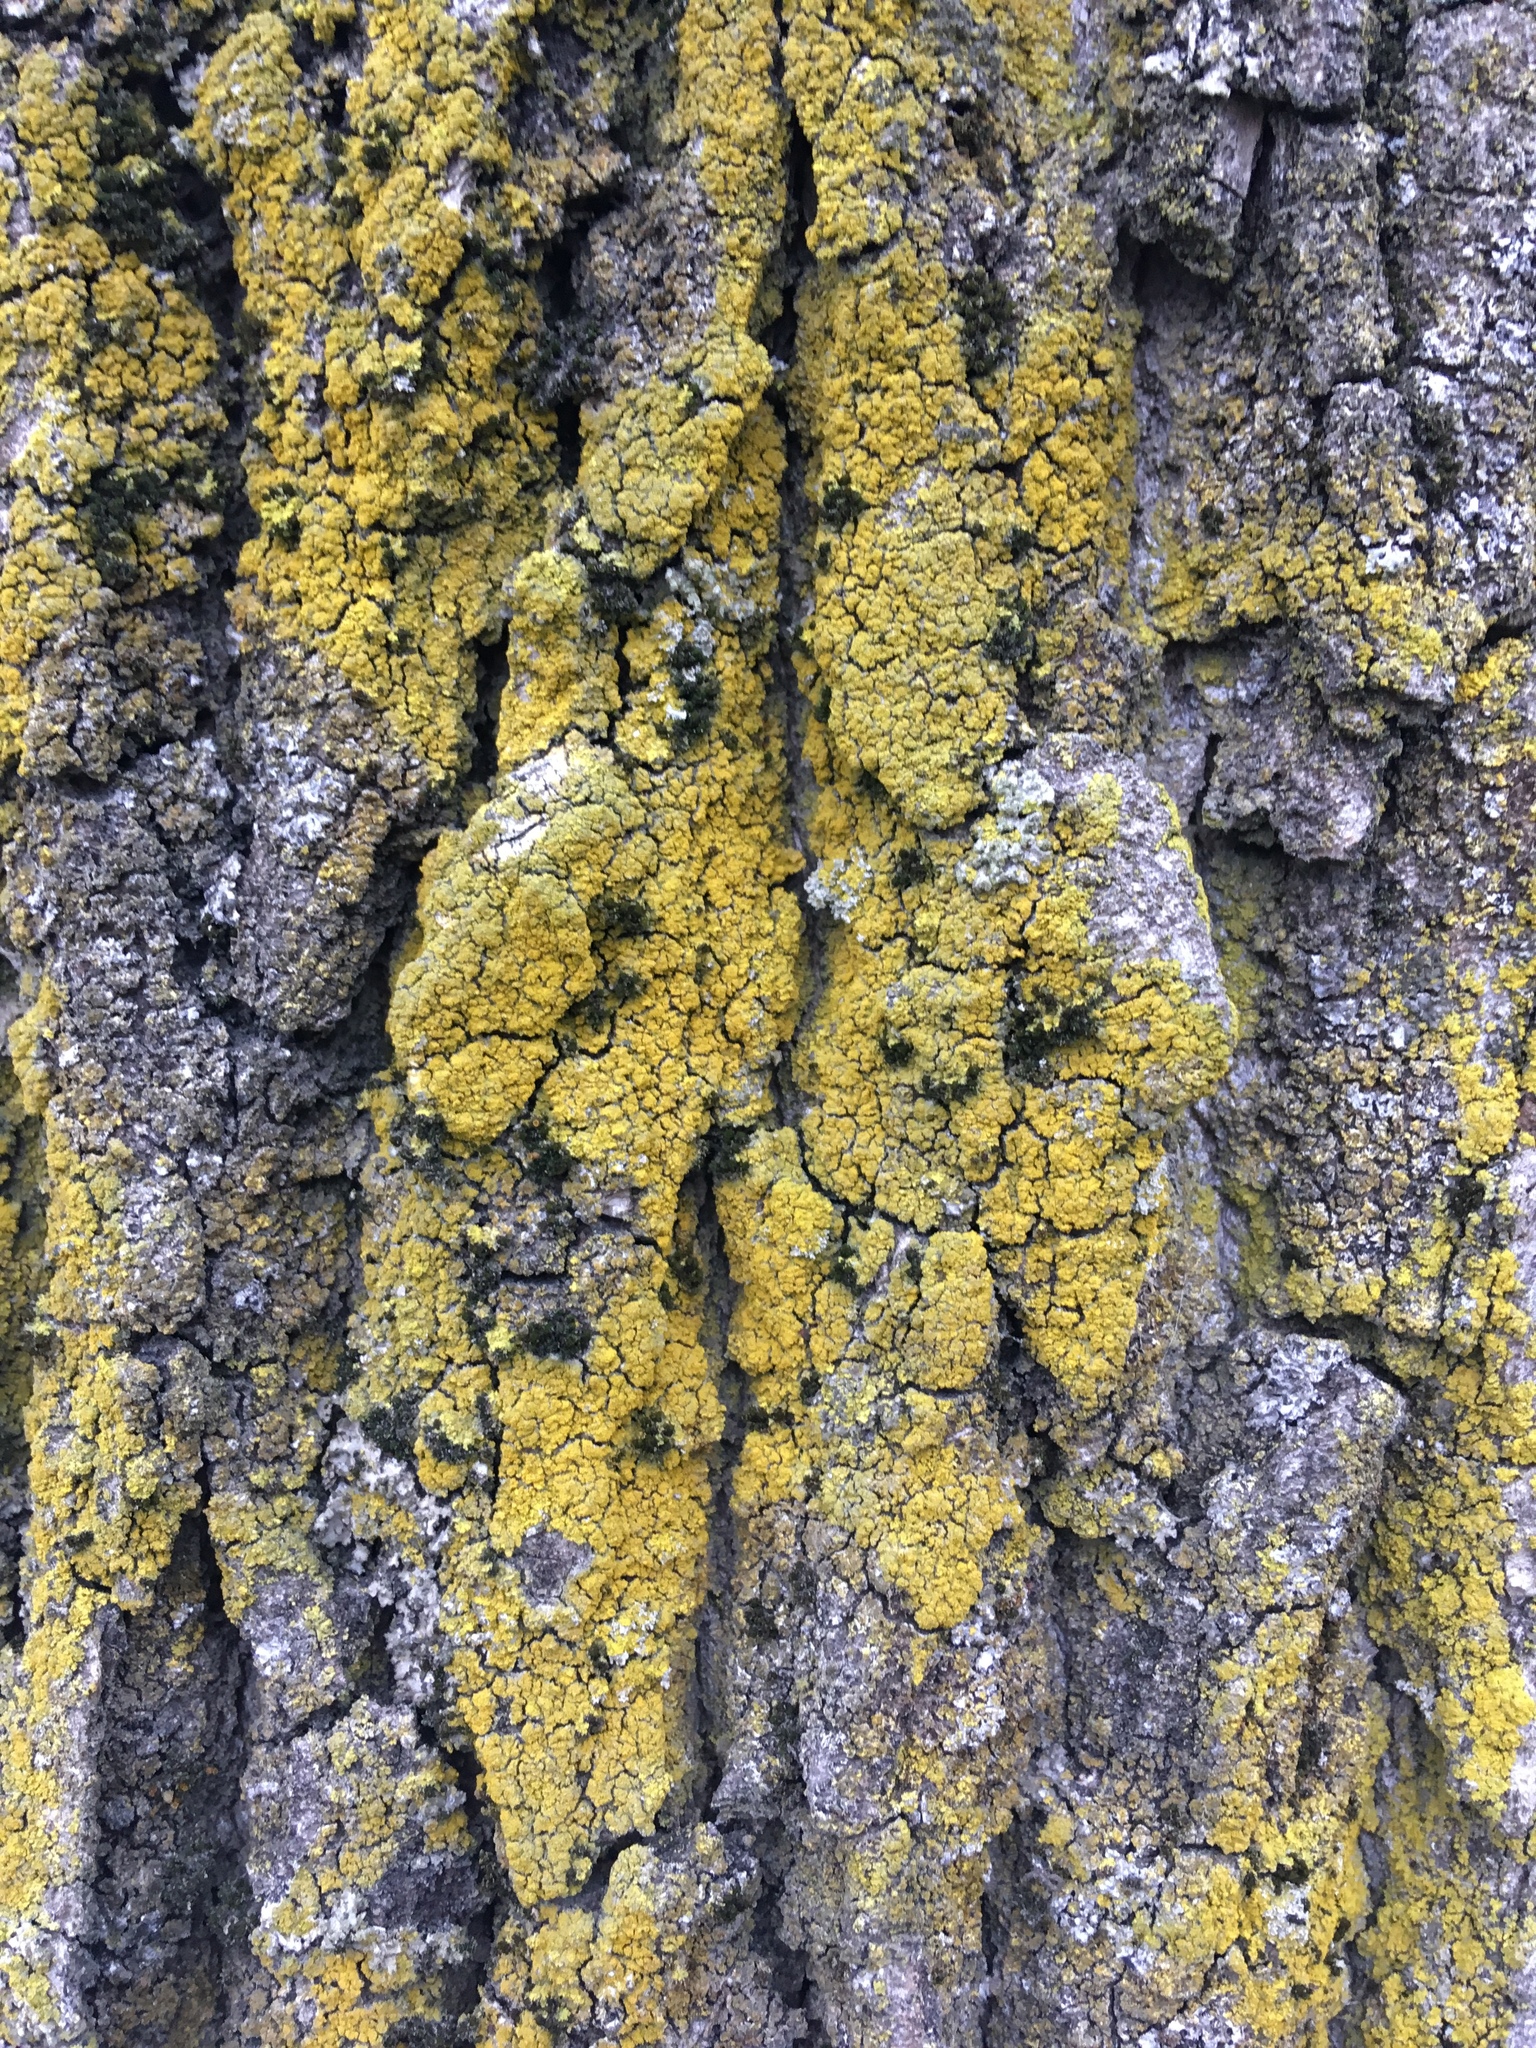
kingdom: Fungi
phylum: Ascomycota
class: Candelariomycetes
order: Candelariales
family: Candelariaceae
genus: Candelaria
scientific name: Candelaria concolor
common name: Candleflame lichen
